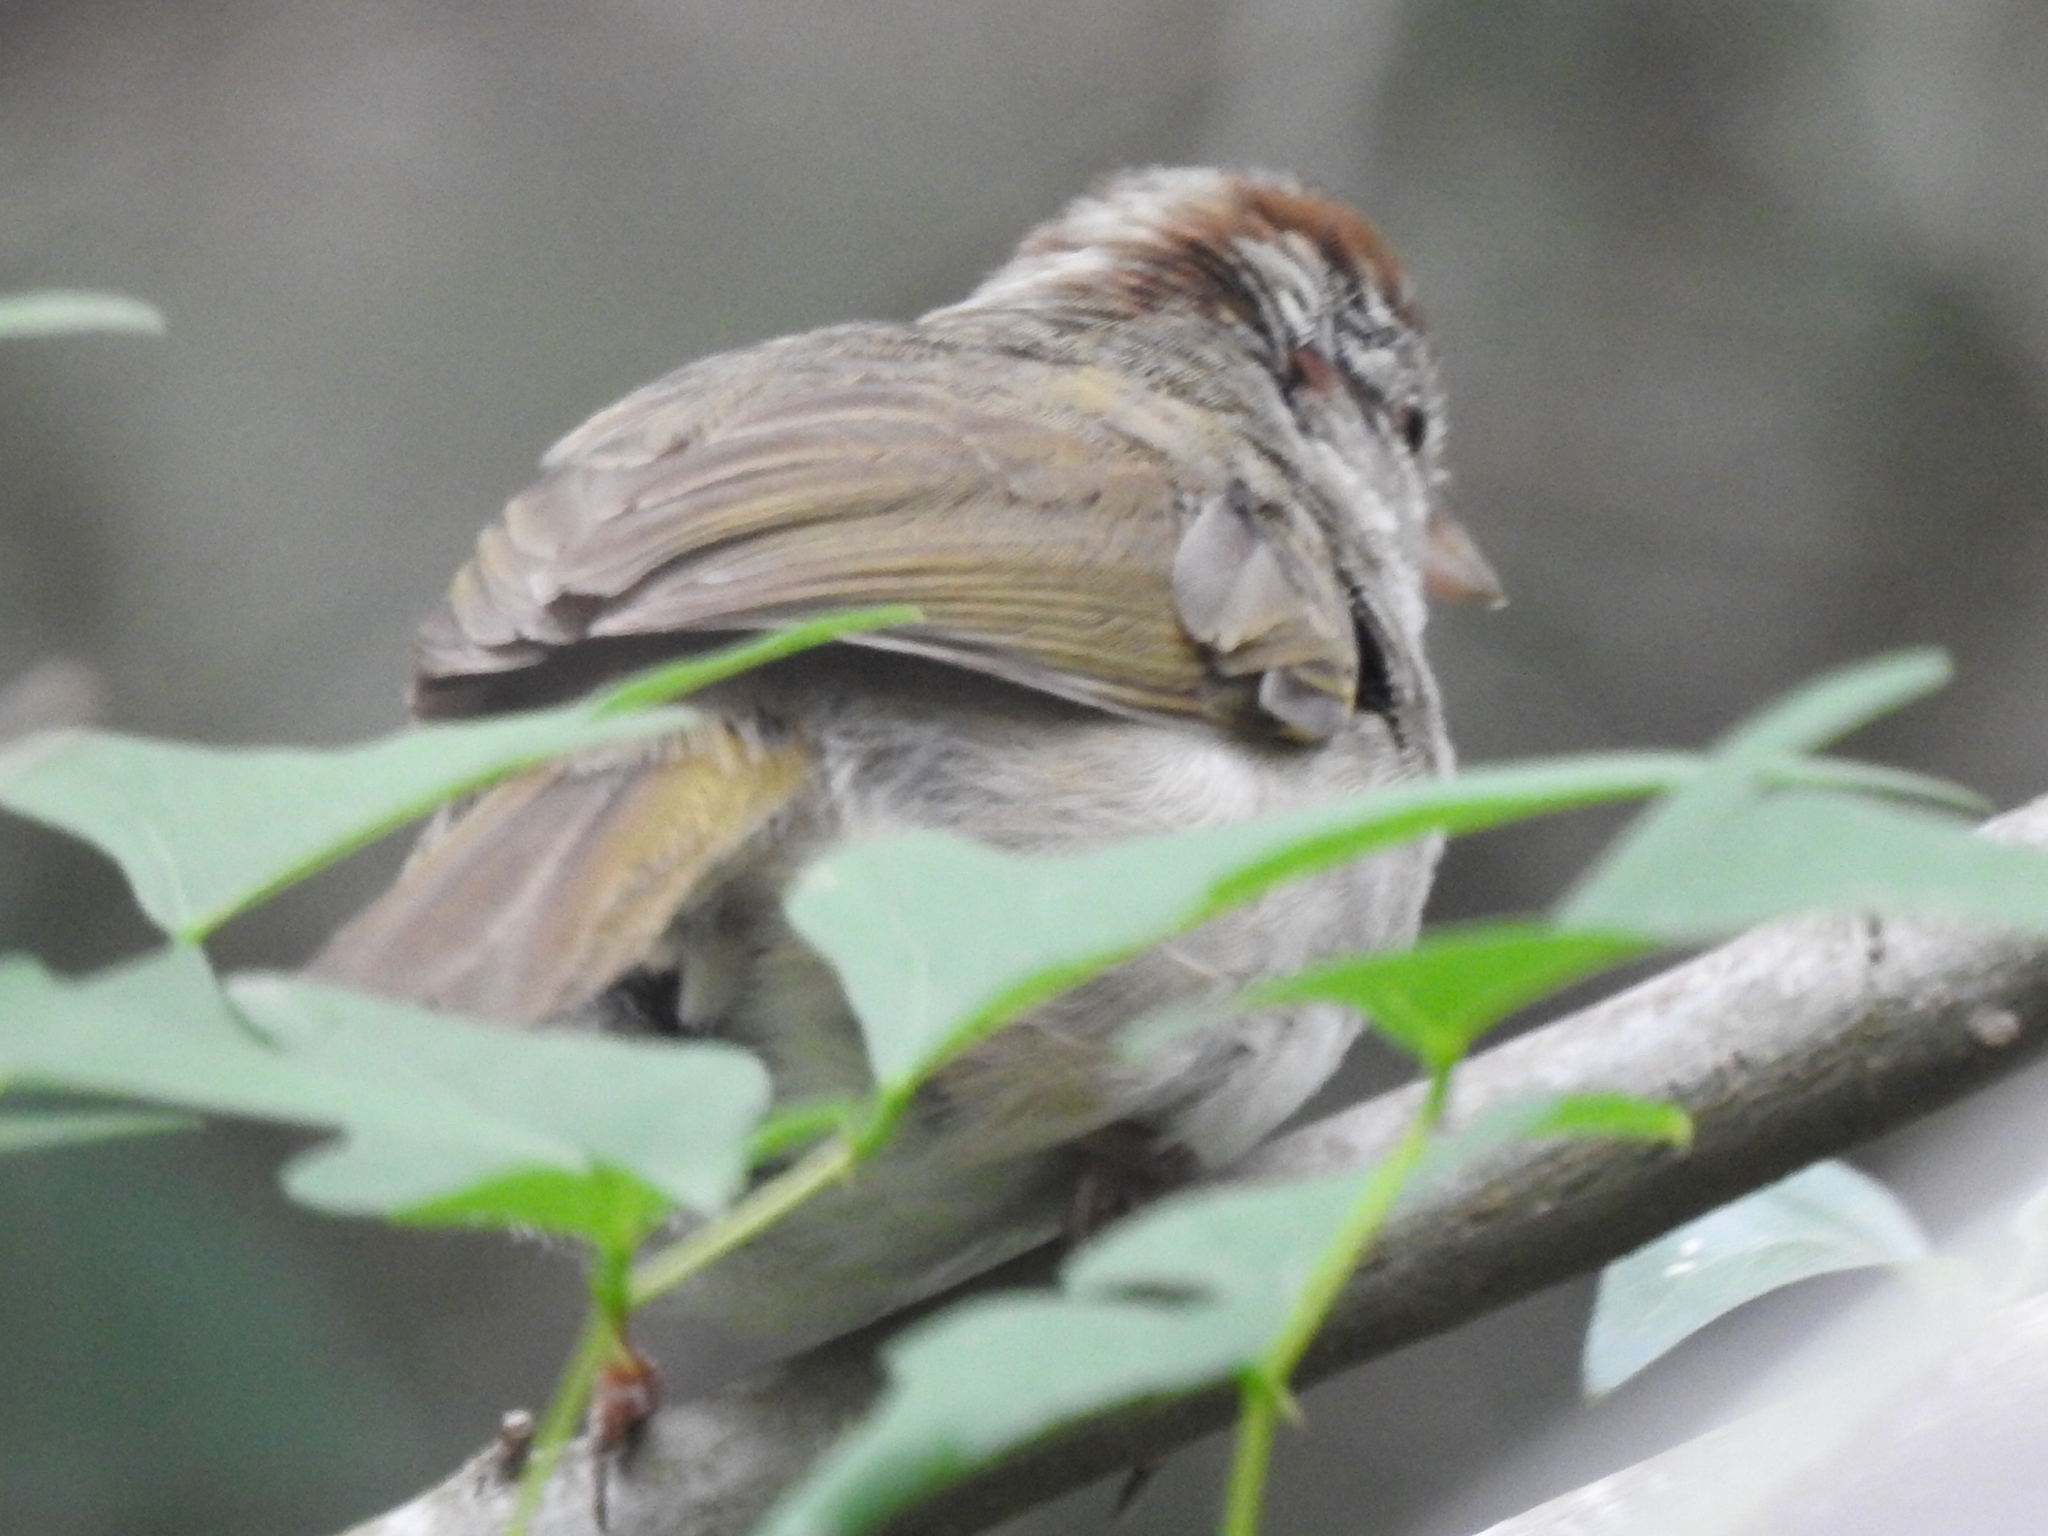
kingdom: Animalia
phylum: Chordata
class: Aves
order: Passeriformes
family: Passerellidae
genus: Arremonops
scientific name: Arremonops rufivirgatus
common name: Olive sparrow
